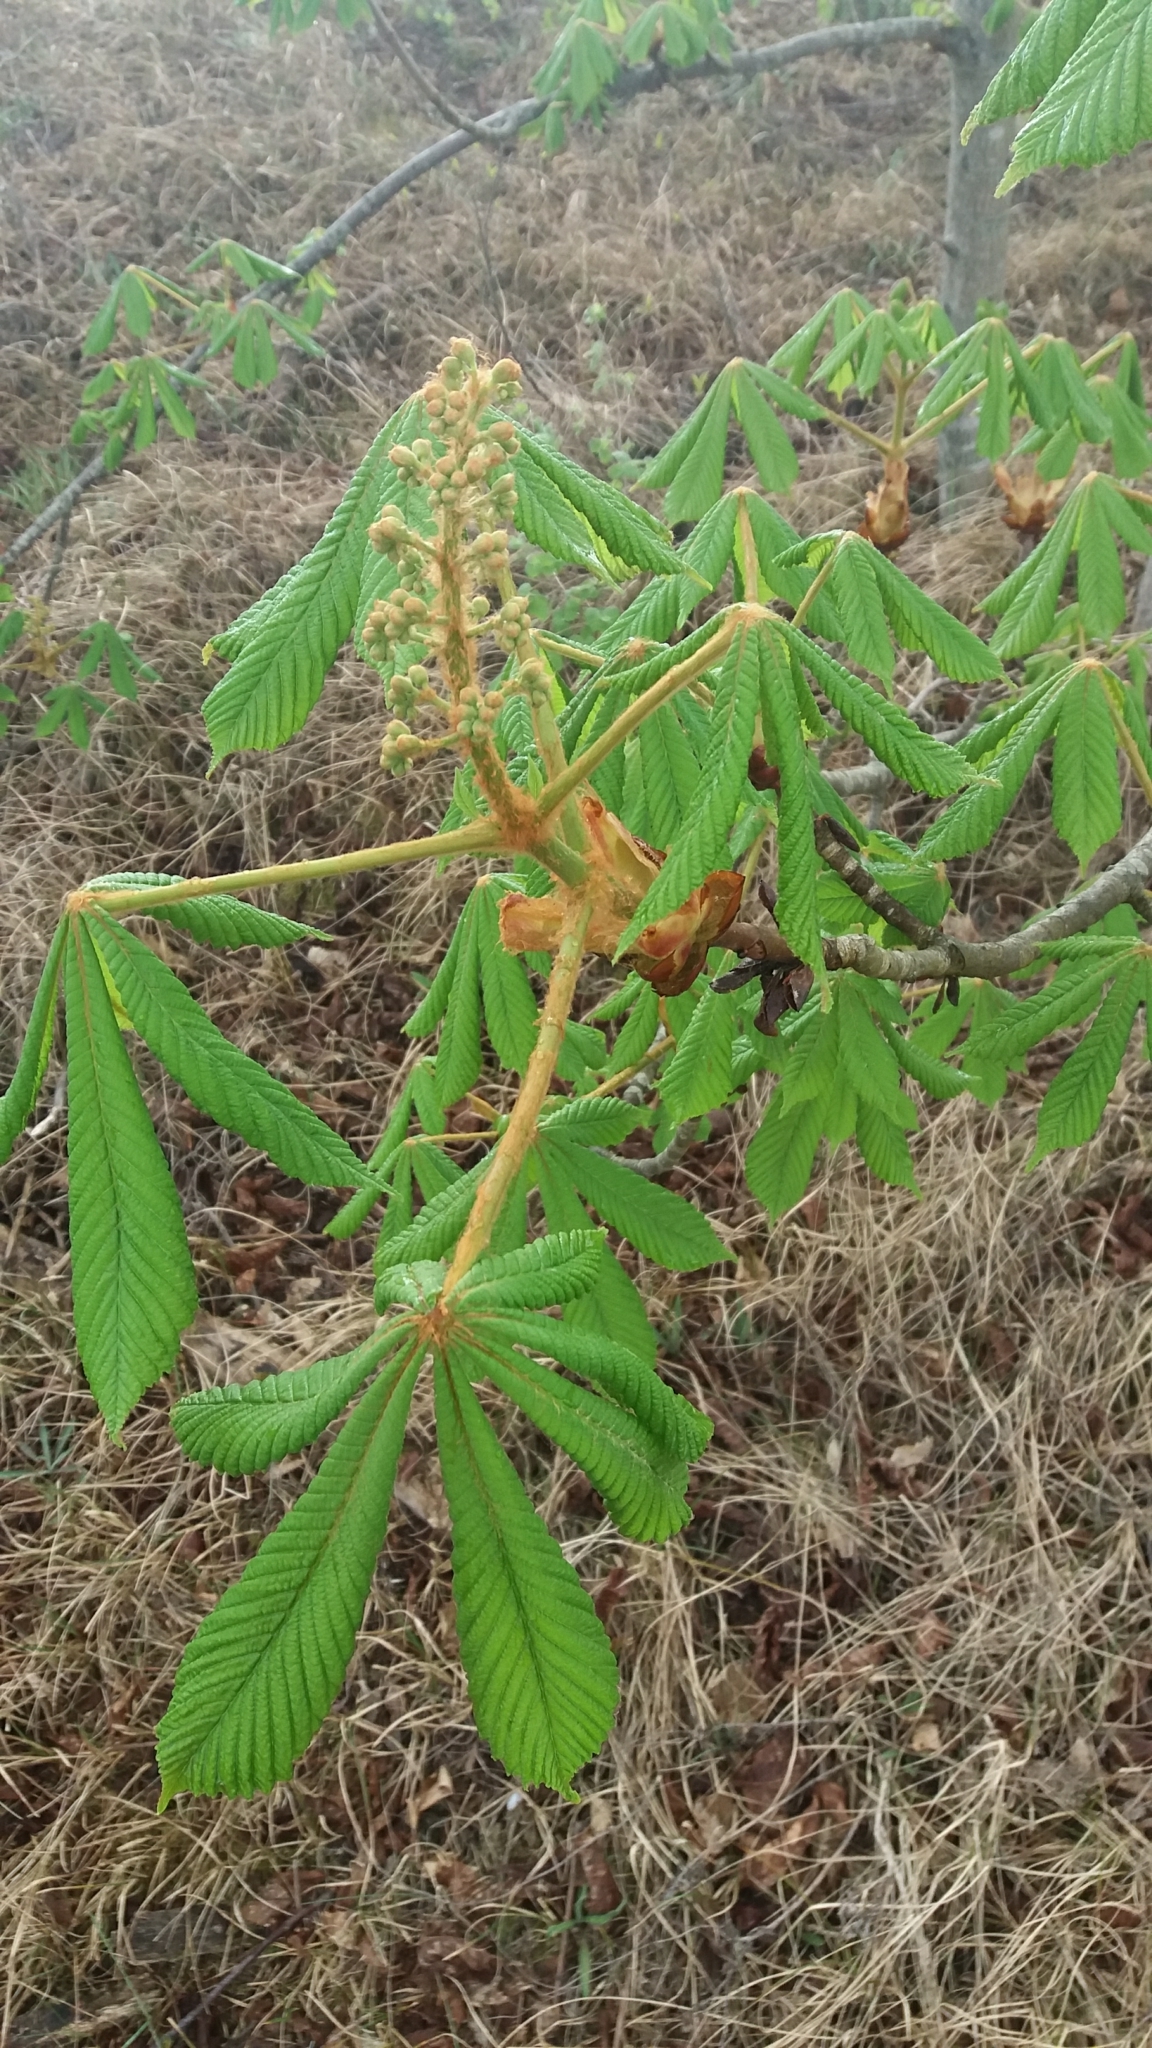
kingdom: Plantae
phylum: Tracheophyta
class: Magnoliopsida
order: Sapindales
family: Sapindaceae
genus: Aesculus
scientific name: Aesculus hippocastanum
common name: Horse-chestnut
